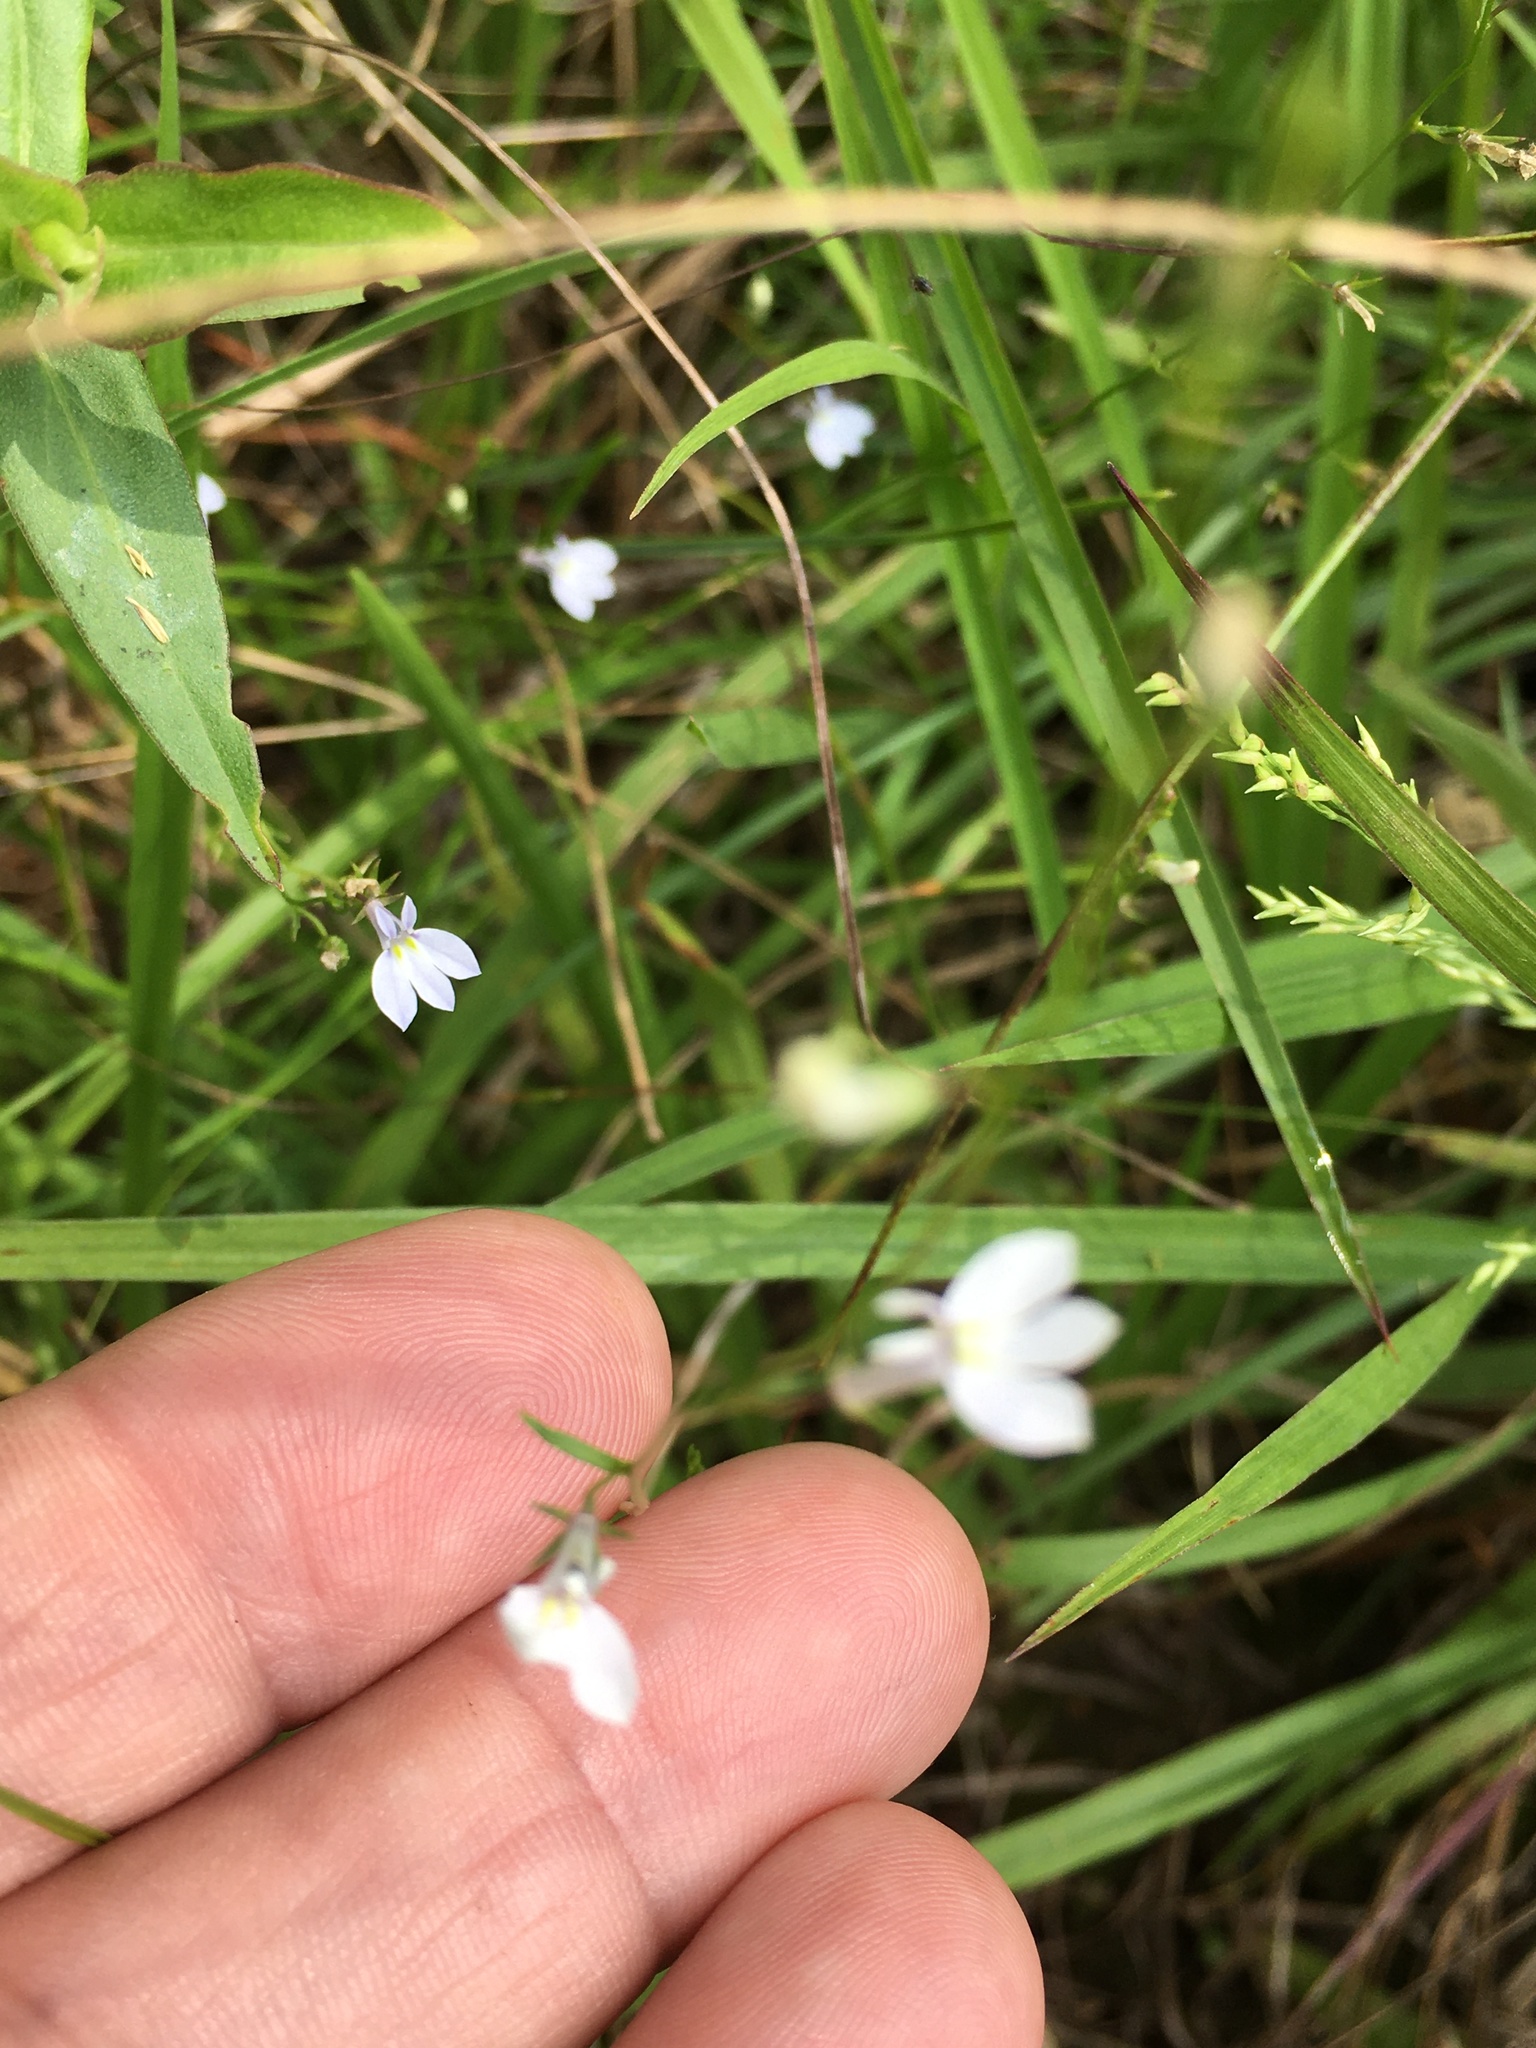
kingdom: Plantae
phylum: Tracheophyta
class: Magnoliopsida
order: Asterales
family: Campanulaceae
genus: Lobelia
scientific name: Lobelia nuttallii
